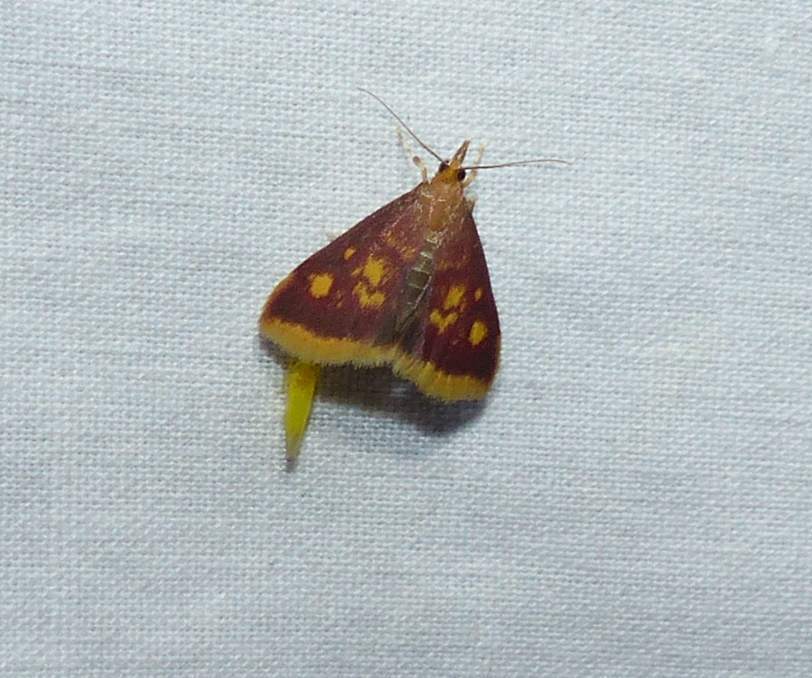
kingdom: Animalia
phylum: Arthropoda
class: Insecta
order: Lepidoptera
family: Crambidae
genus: Pyrausta
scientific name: Pyrausta acrionalis
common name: Mint-loving pyrausta moth
